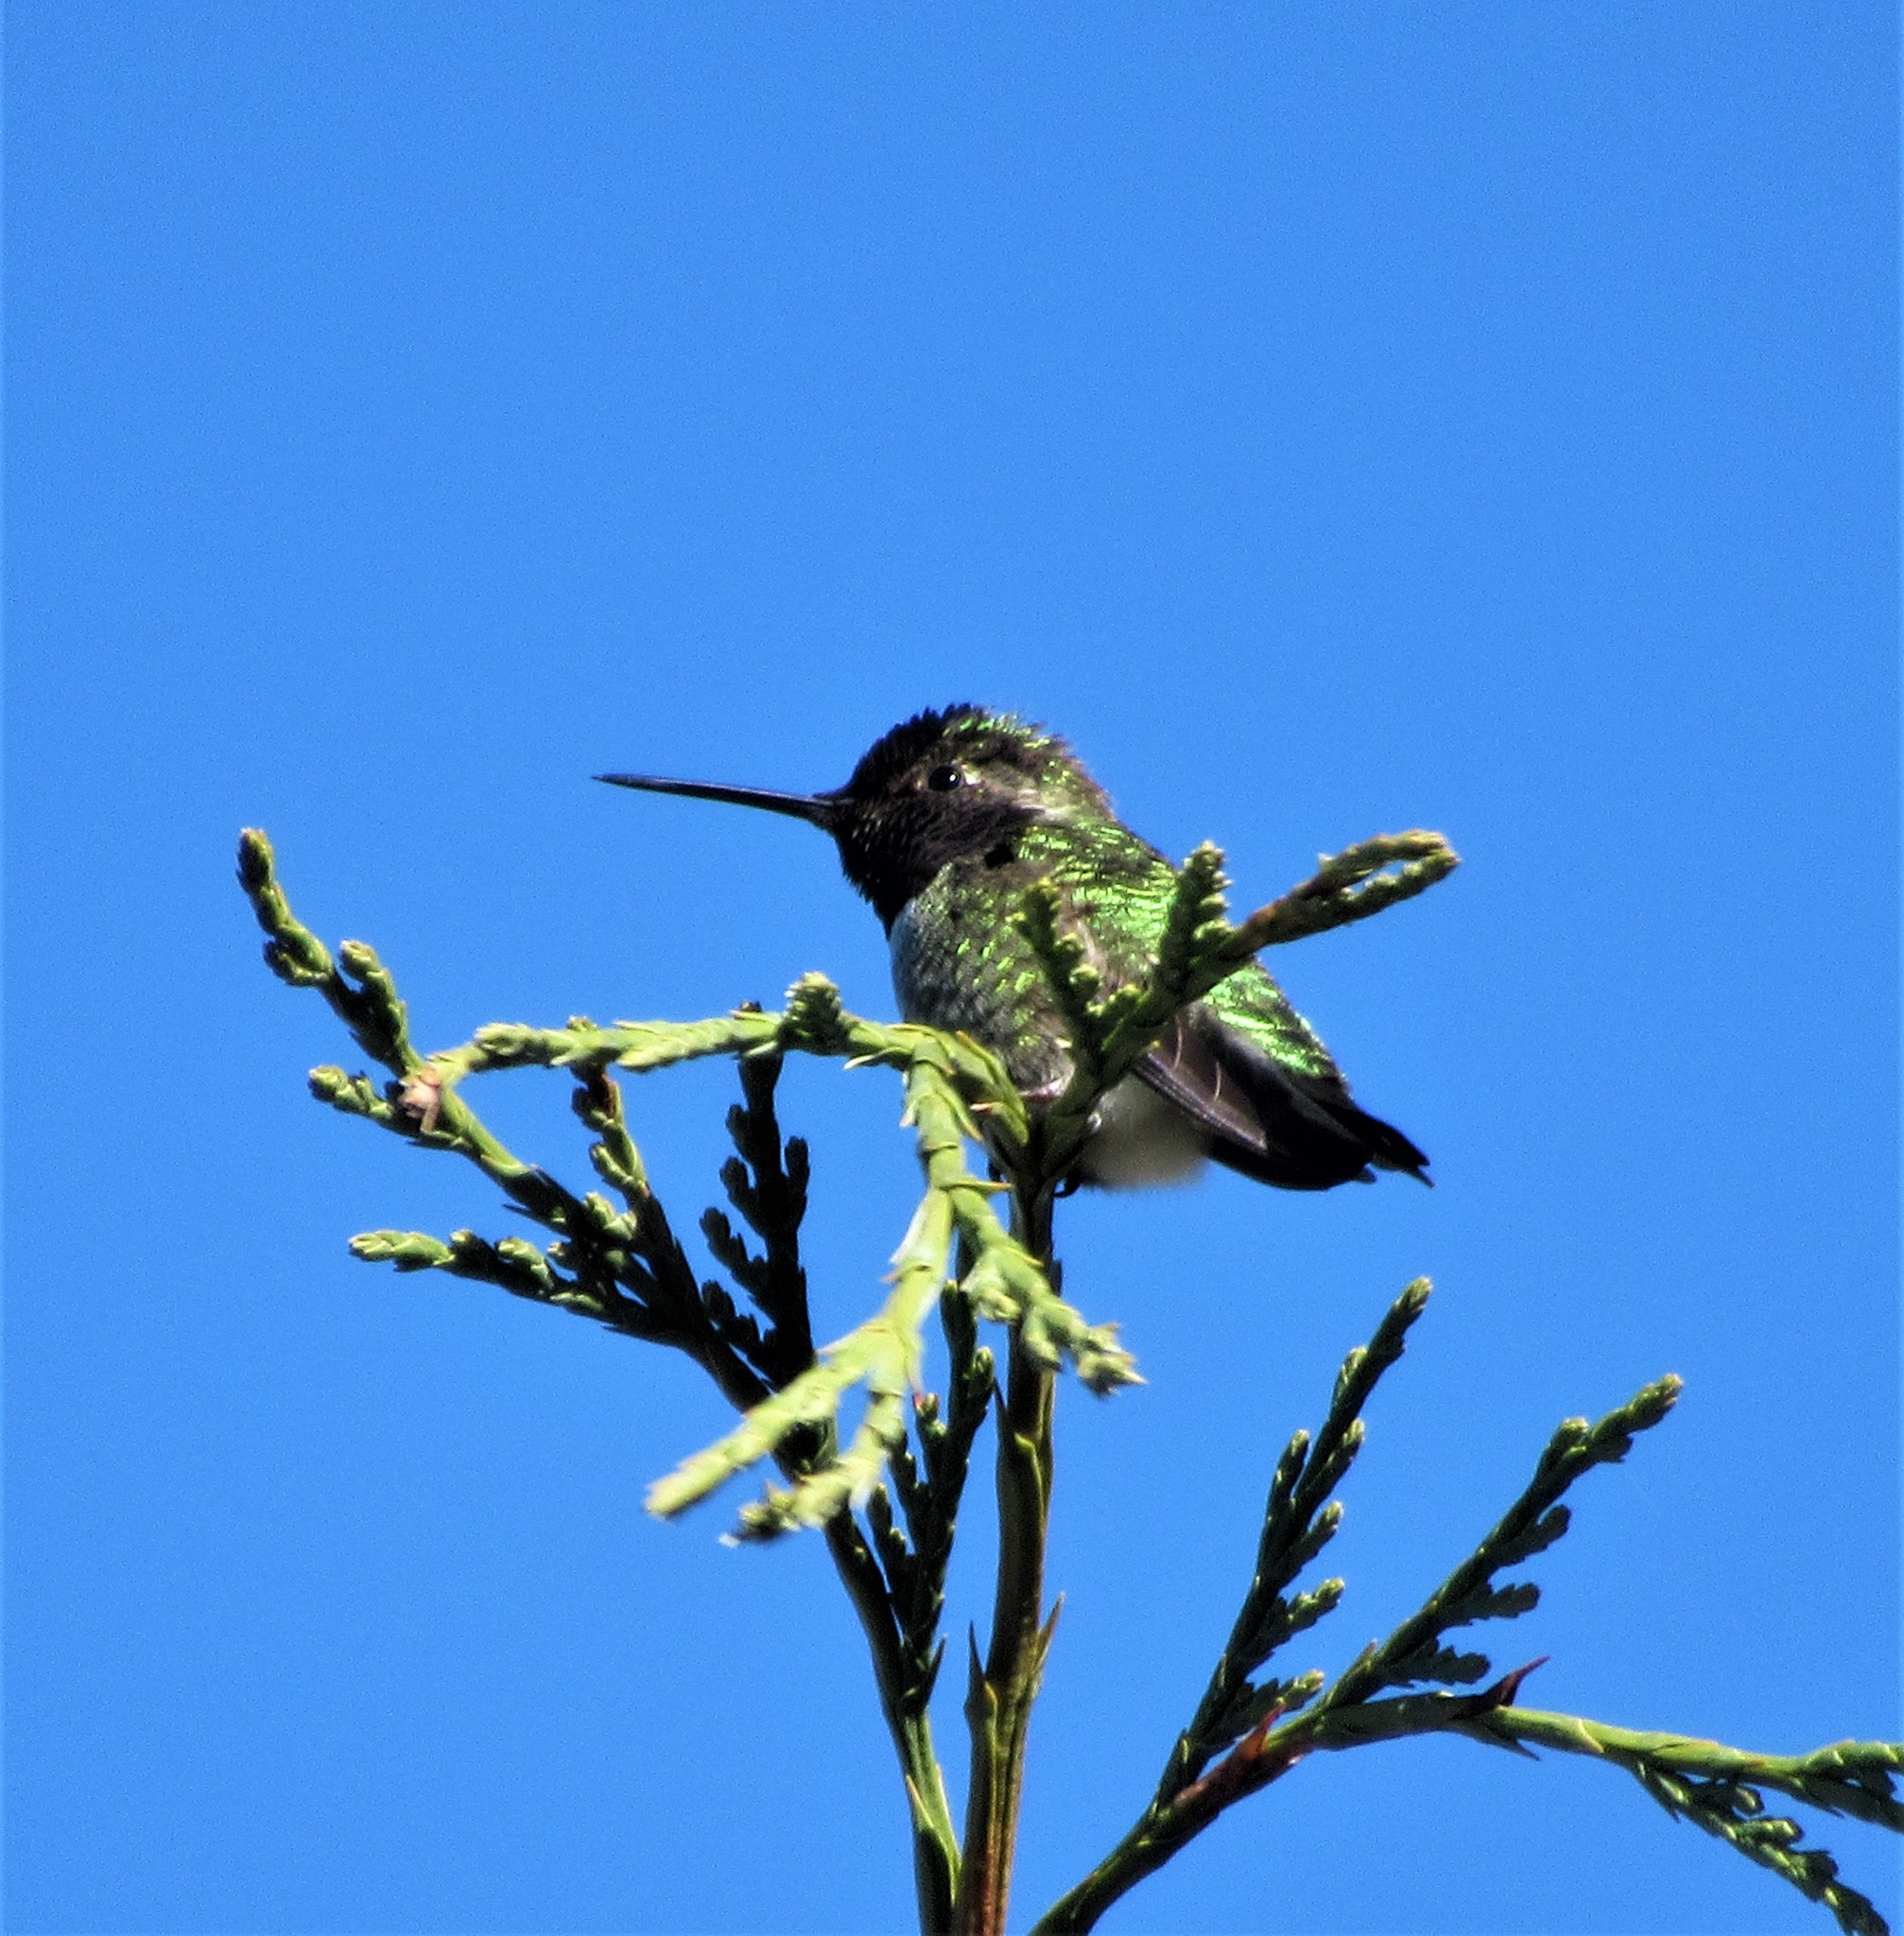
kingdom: Animalia
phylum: Chordata
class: Aves
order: Apodiformes
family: Trochilidae
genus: Calypte
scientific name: Calypte anna
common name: Anna's hummingbird
